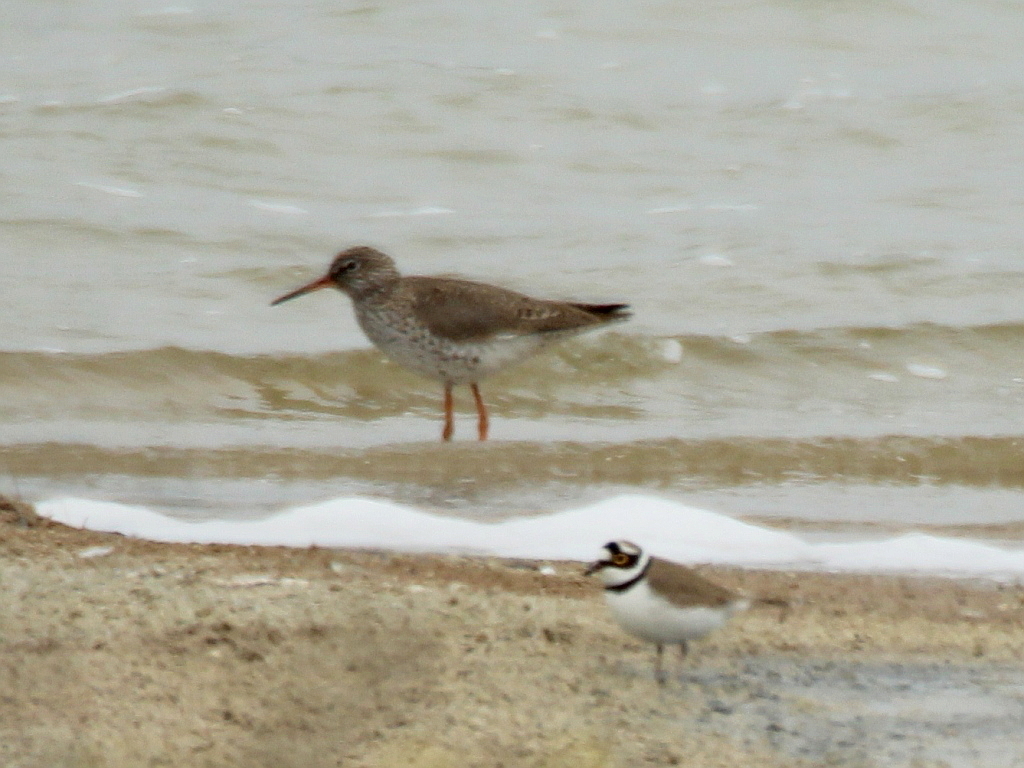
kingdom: Animalia
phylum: Chordata
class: Aves
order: Charadriiformes
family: Scolopacidae
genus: Tringa
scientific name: Tringa totanus
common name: Common redshank
